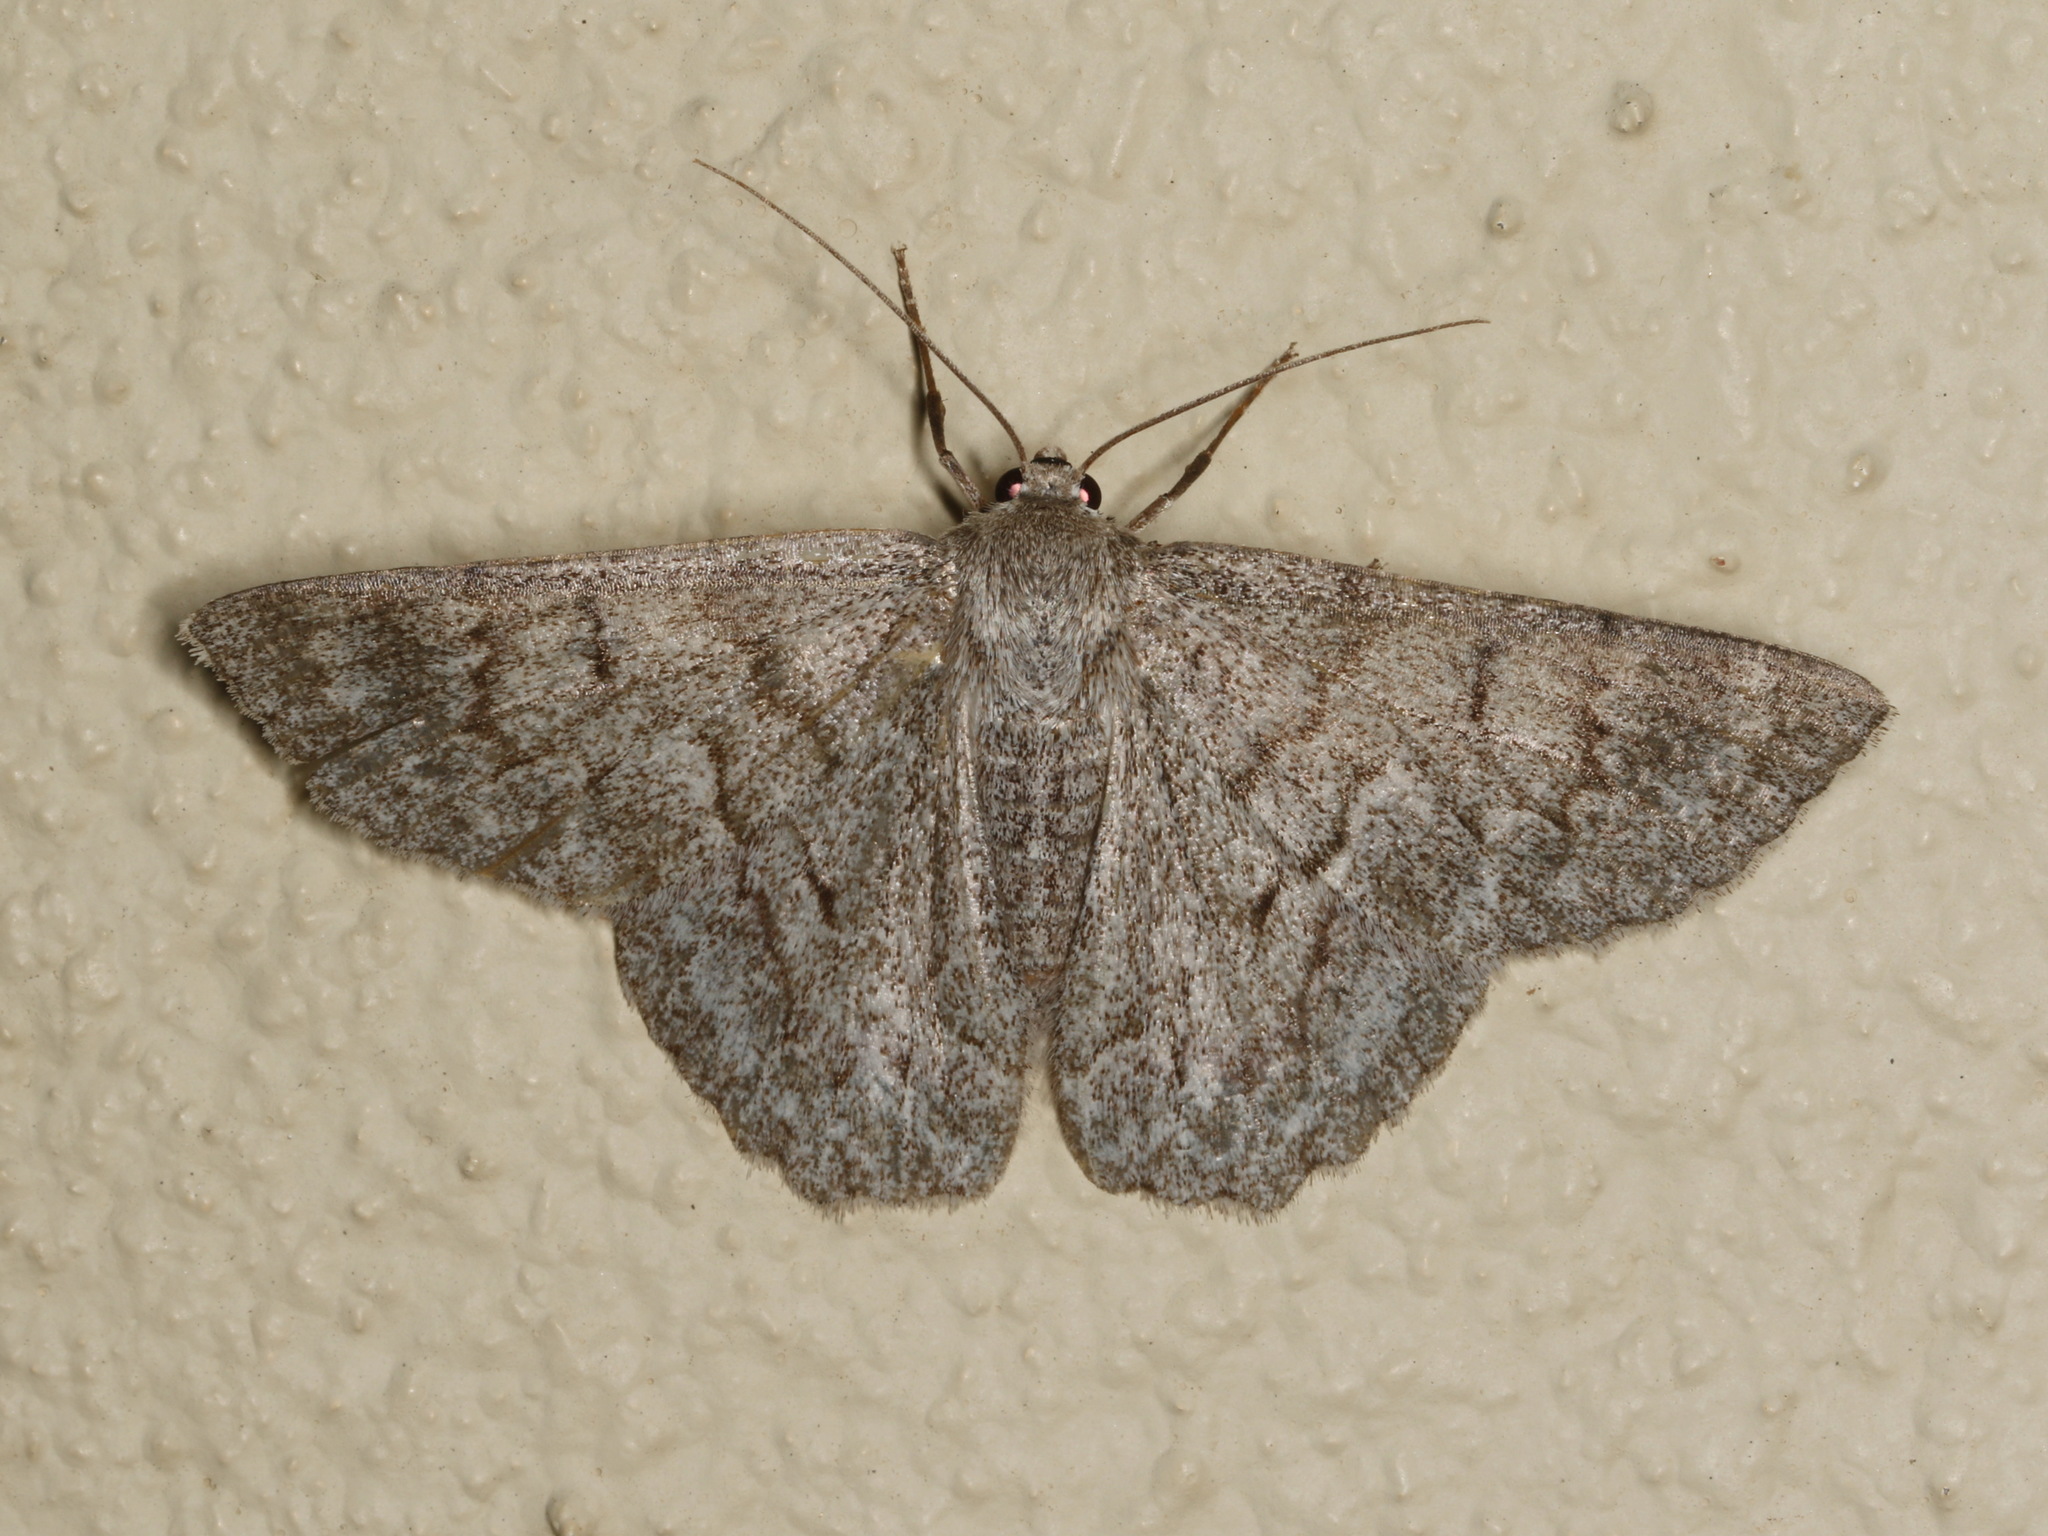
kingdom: Animalia
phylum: Arthropoda
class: Insecta
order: Lepidoptera
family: Geometridae
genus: Crypsiphona
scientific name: Crypsiphona ocultaria
